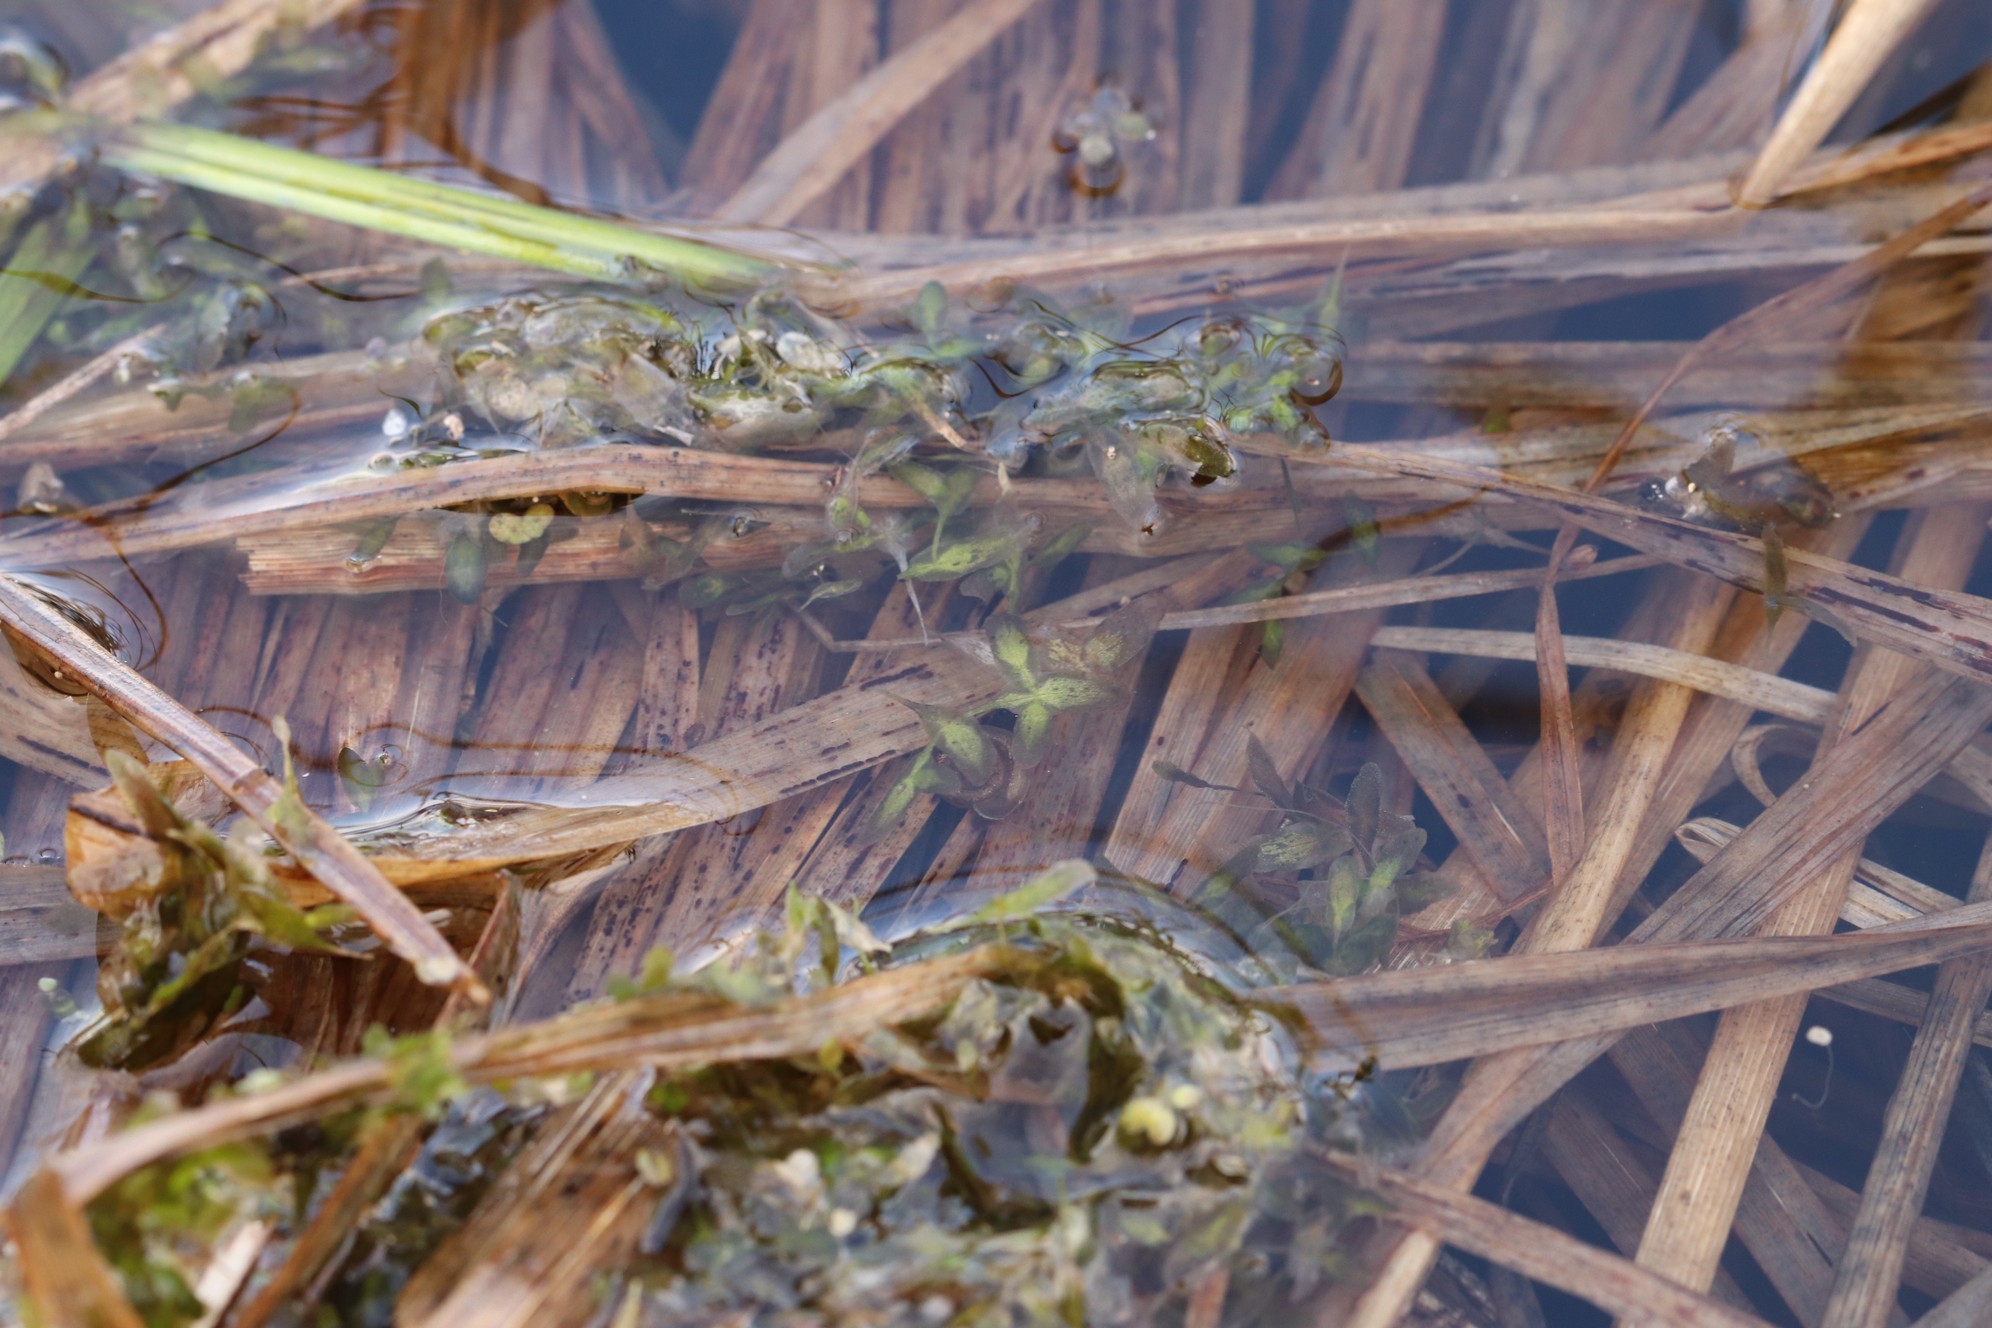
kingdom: Plantae
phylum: Tracheophyta
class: Liliopsida
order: Alismatales
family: Araceae
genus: Lemna
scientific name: Lemna trisulca
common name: Ivy-leaved duckweed
